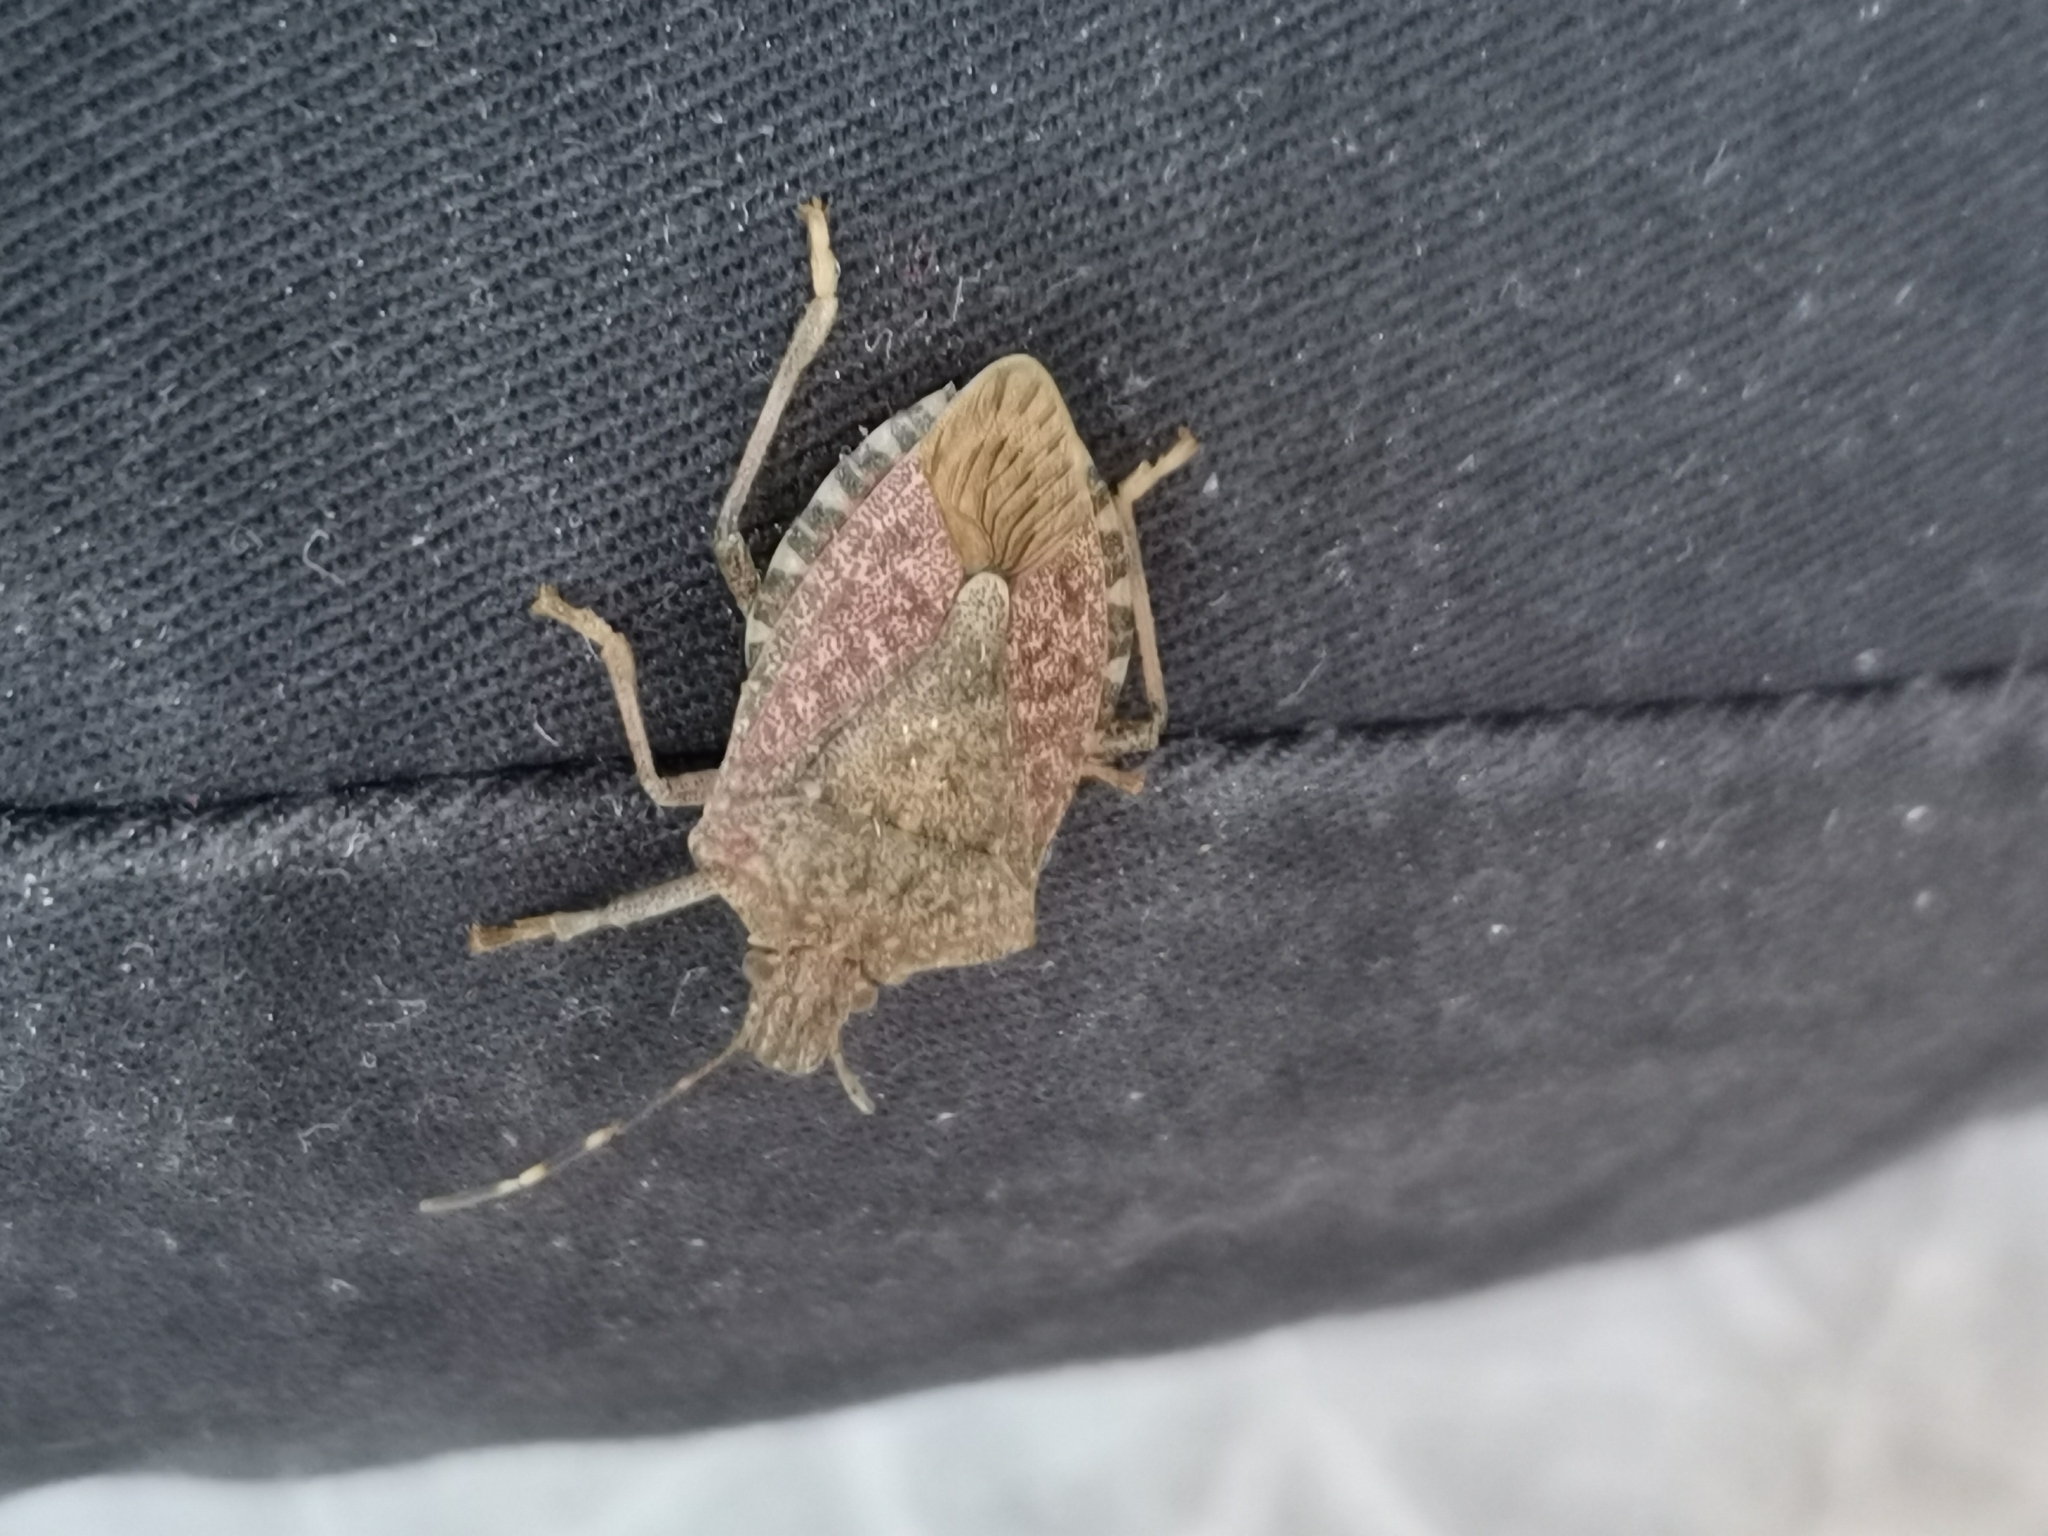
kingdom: Animalia
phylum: Arthropoda
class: Insecta
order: Hemiptera
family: Pentatomidae
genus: Halyomorpha
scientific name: Halyomorpha halys
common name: Brown marmorated stink bug
